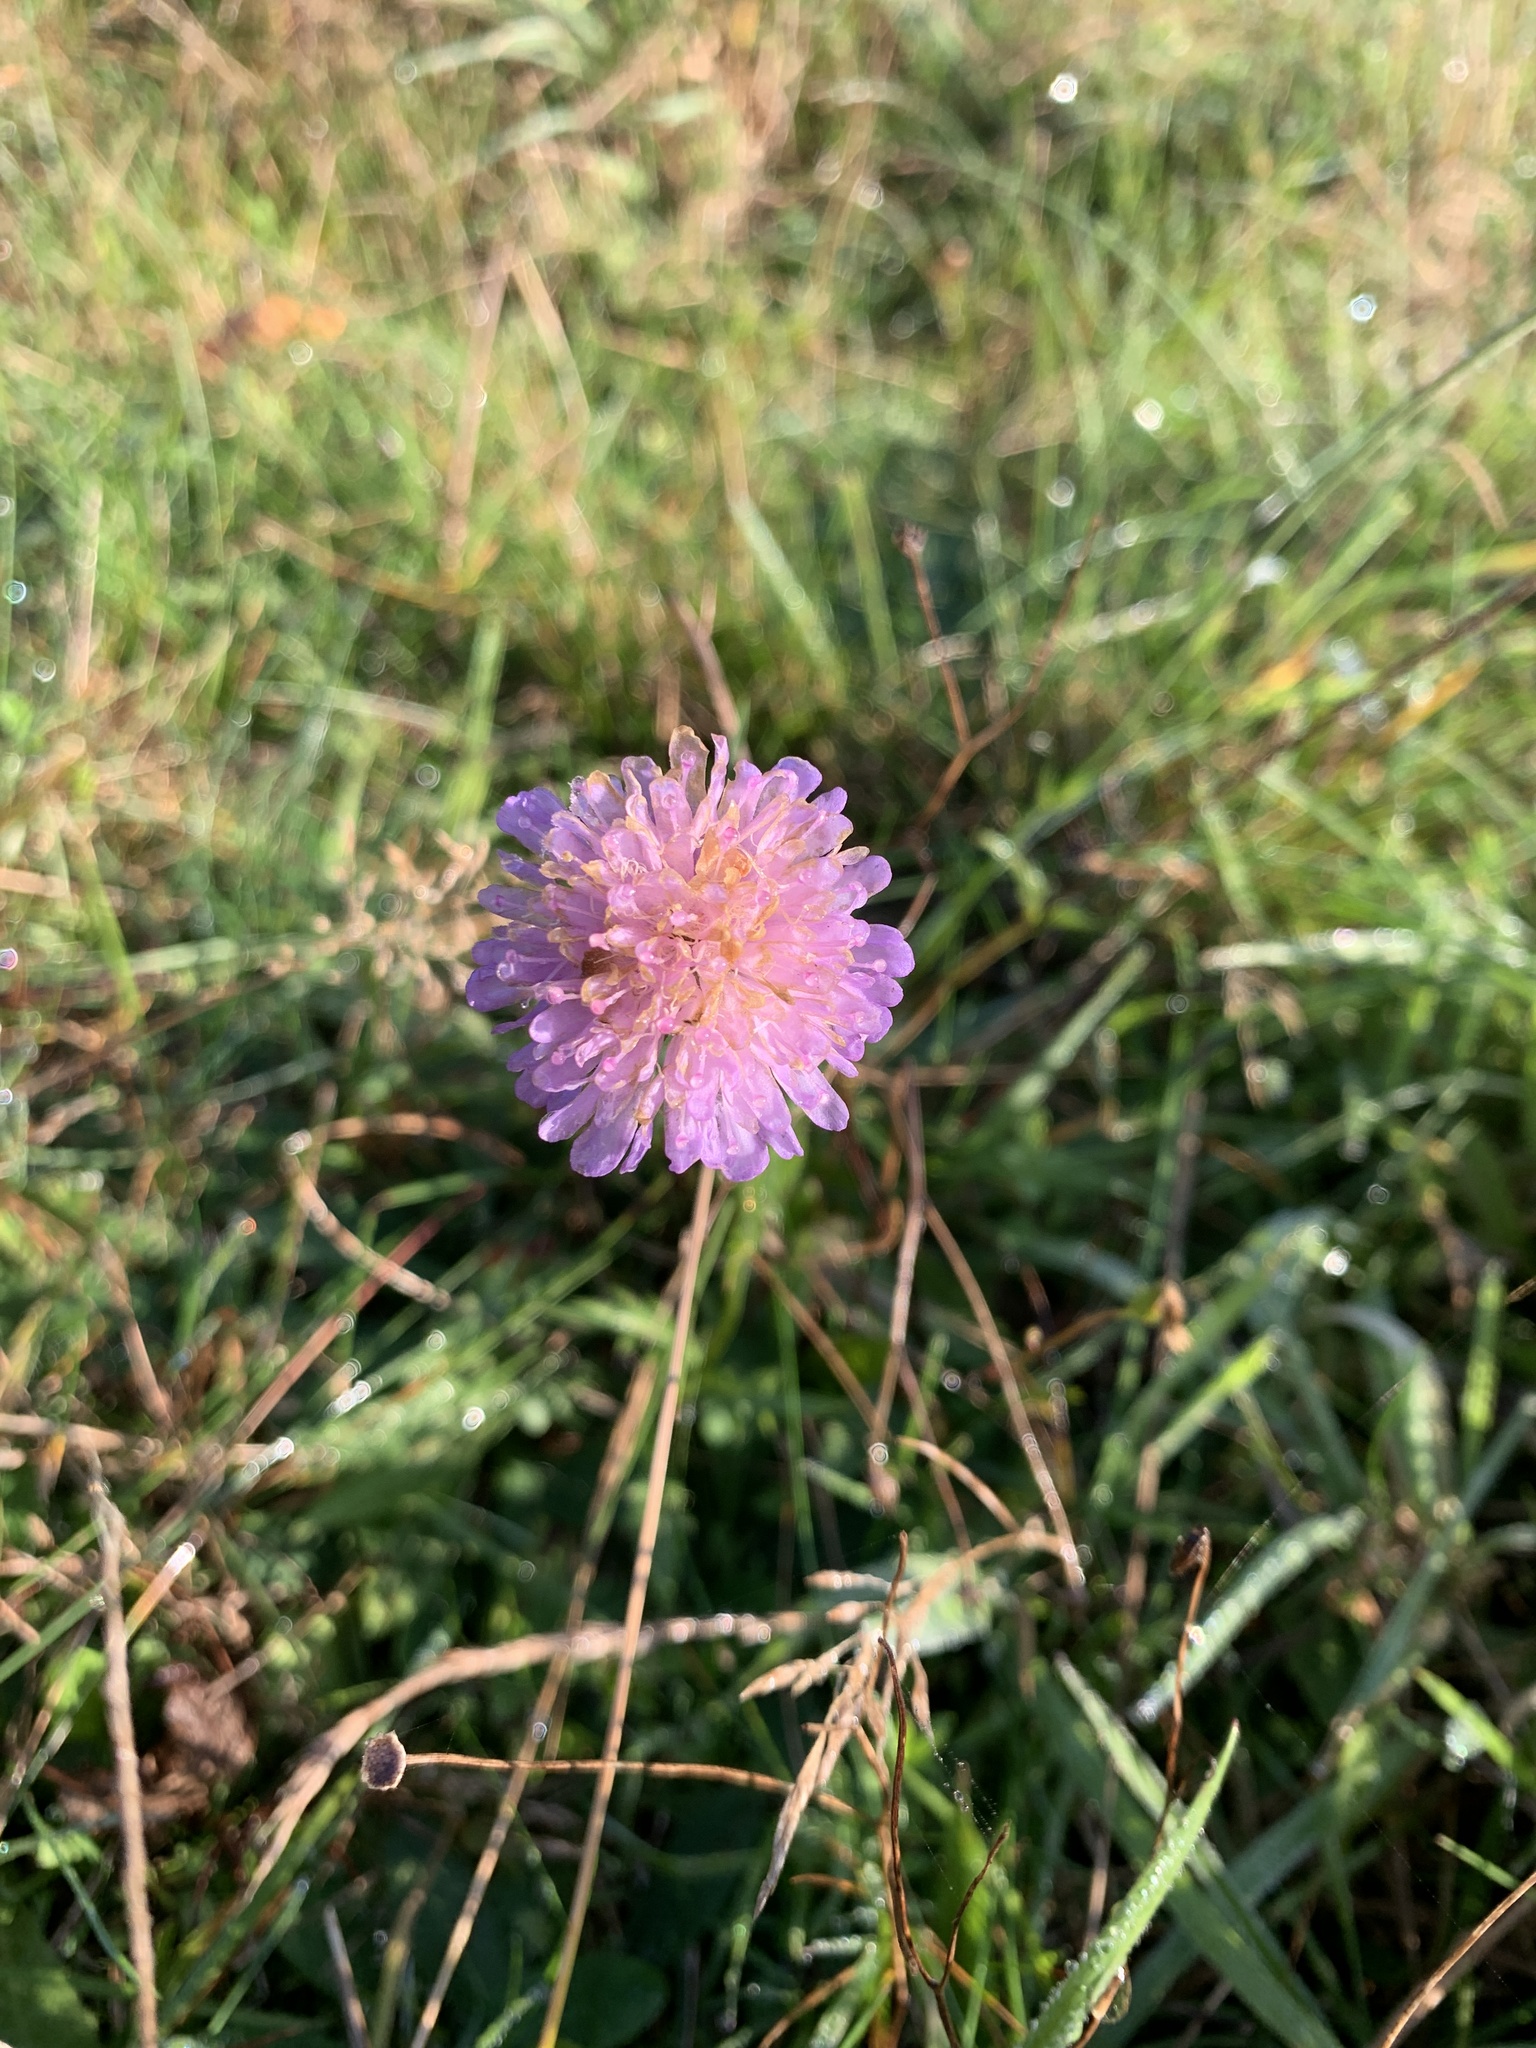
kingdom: Plantae
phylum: Tracheophyta
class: Magnoliopsida
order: Dipsacales
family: Caprifoliaceae
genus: Knautia
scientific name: Knautia arvensis
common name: Field scabiosa
